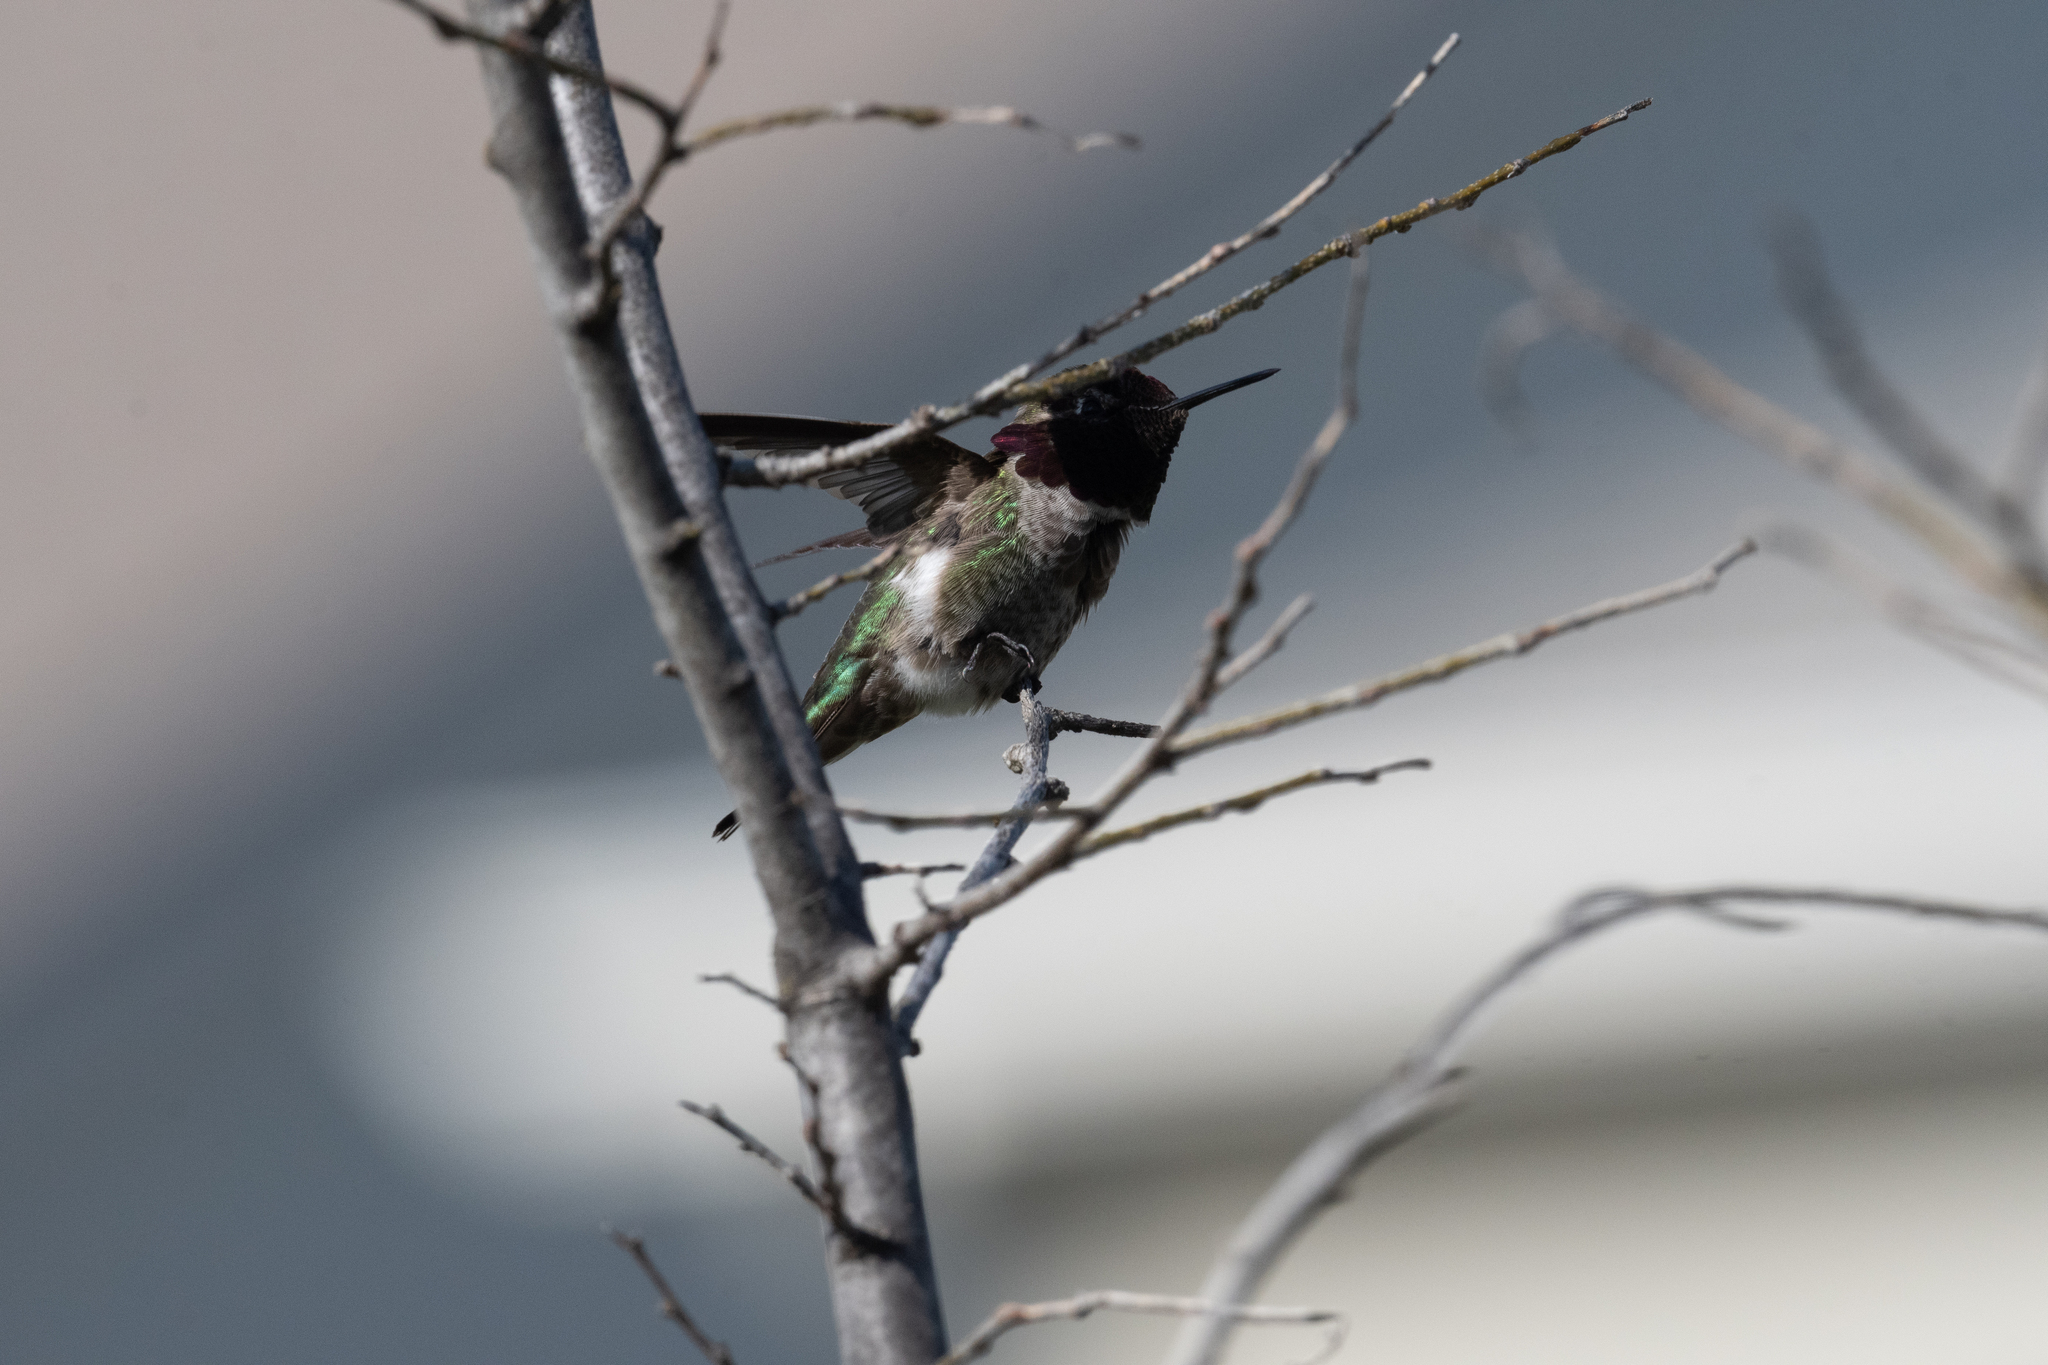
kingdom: Animalia
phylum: Chordata
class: Aves
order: Apodiformes
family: Trochilidae
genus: Calypte
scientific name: Calypte anna
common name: Anna's hummingbird
